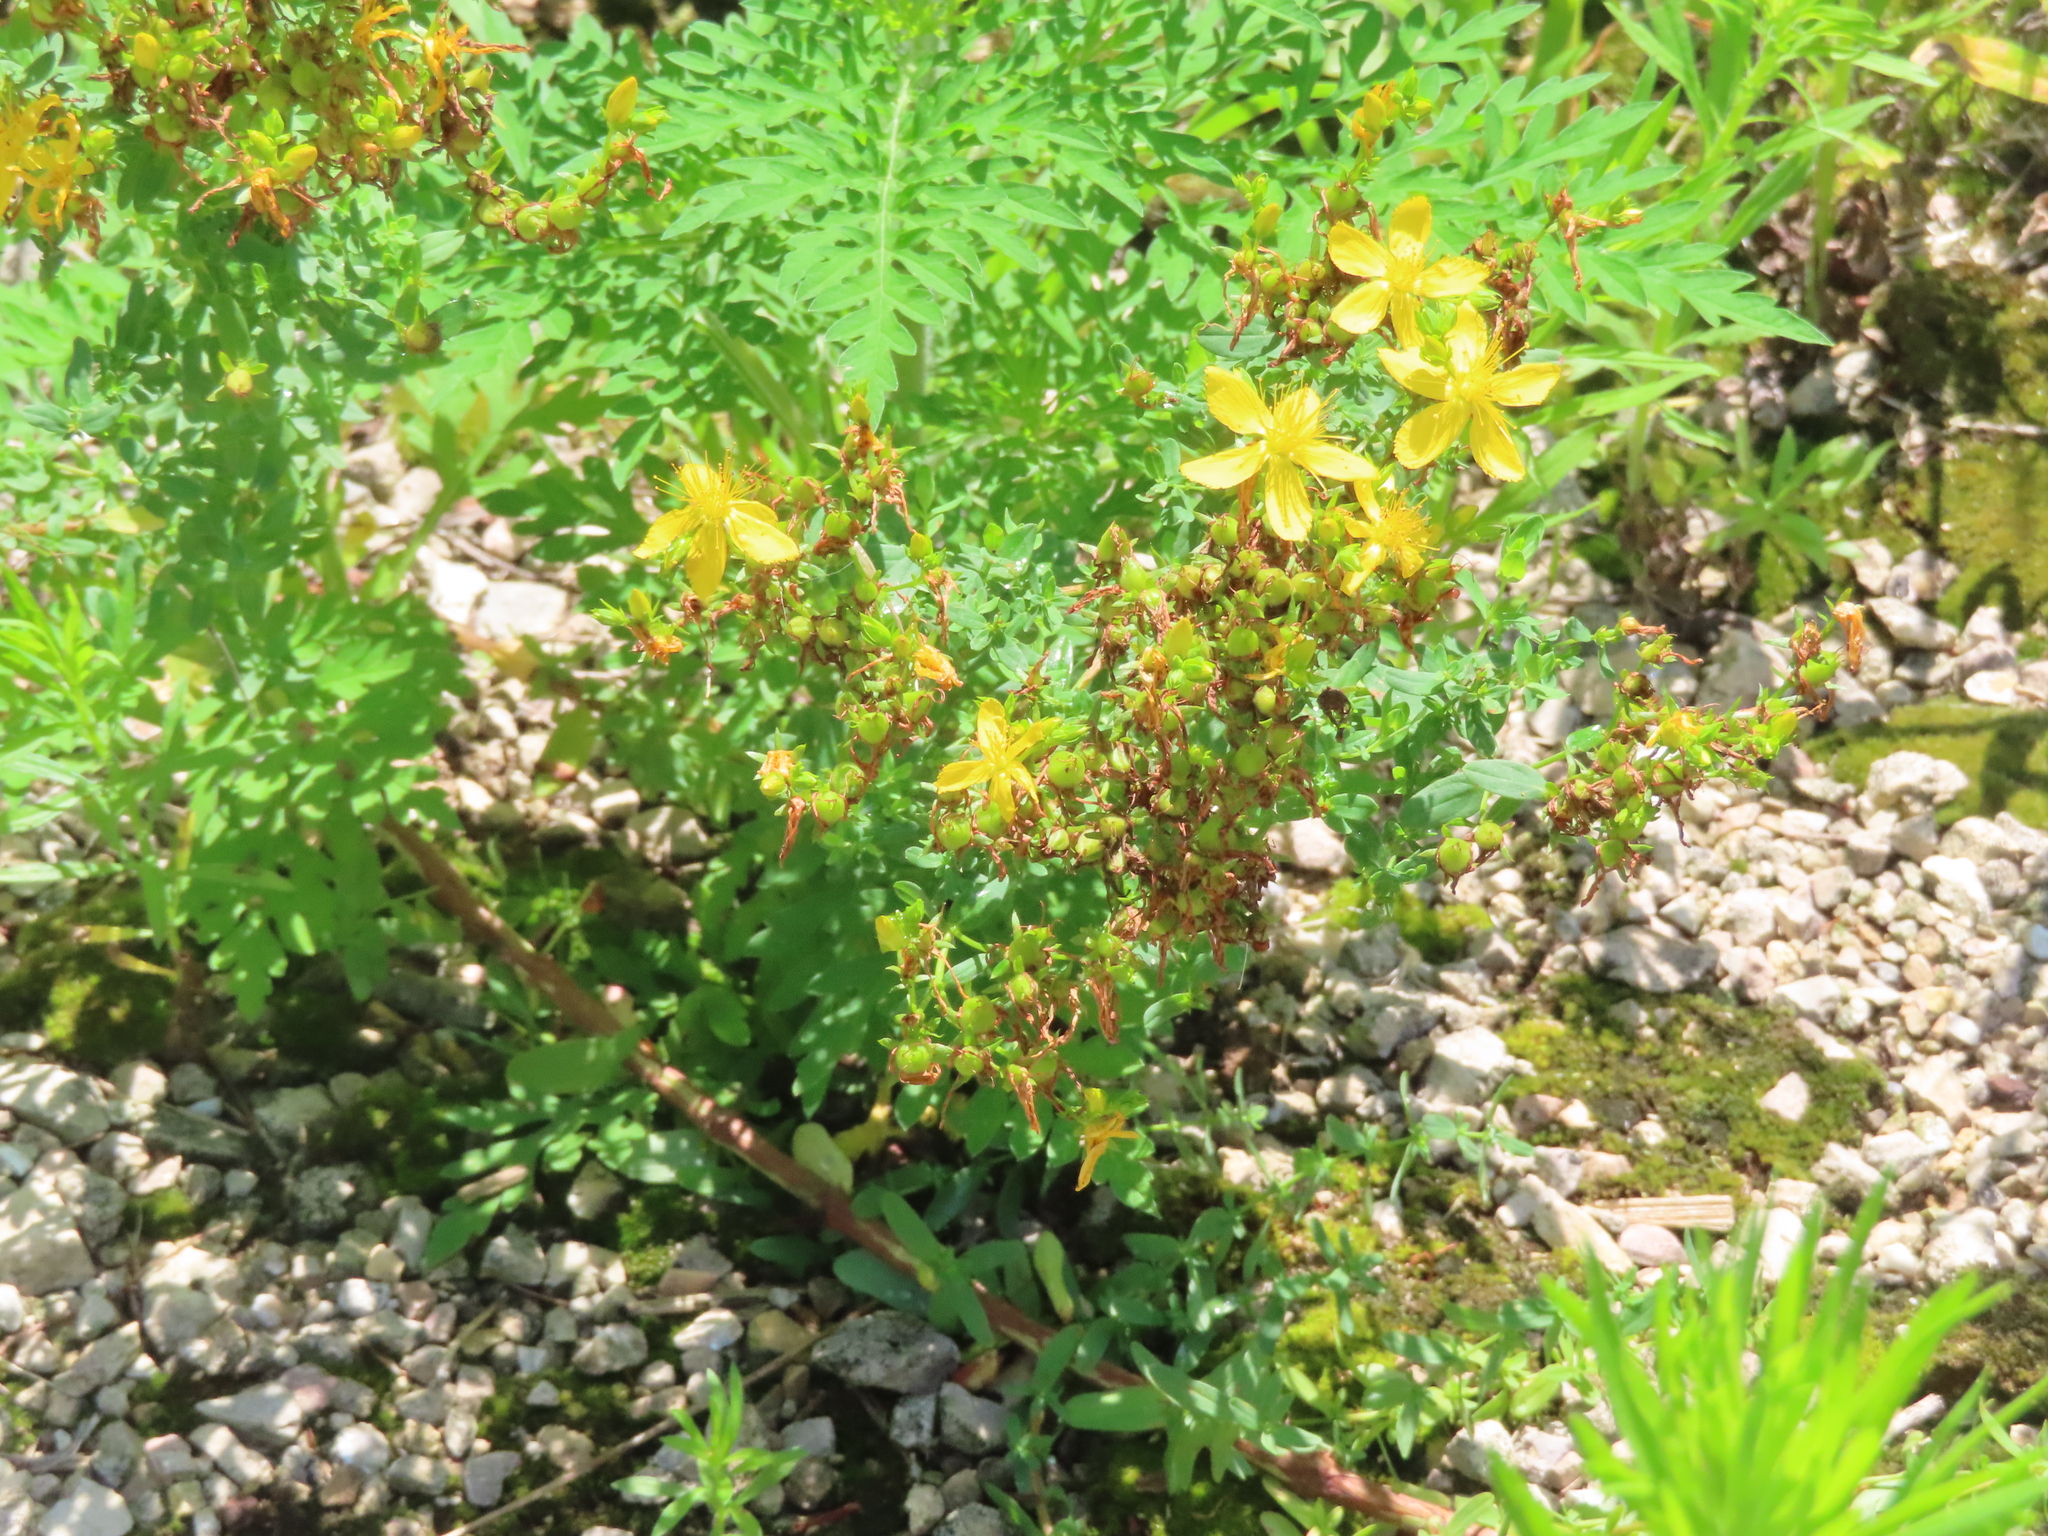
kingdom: Plantae
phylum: Tracheophyta
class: Magnoliopsida
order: Malpighiales
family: Hypericaceae
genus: Hypericum
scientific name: Hypericum perforatum
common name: Common st. johnswort
